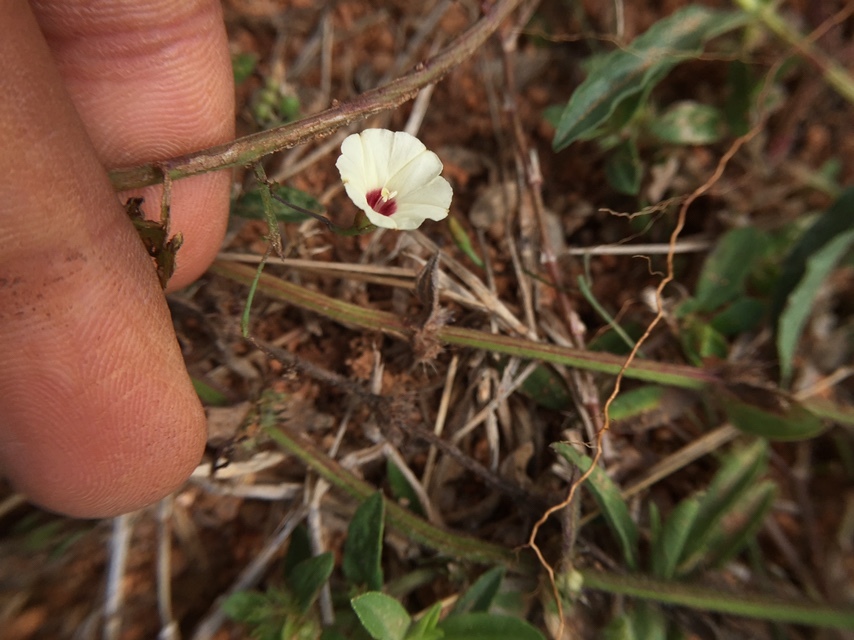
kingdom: Plantae
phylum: Tracheophyta
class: Magnoliopsida
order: Solanales
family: Convolvulaceae
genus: Xenostegia
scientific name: Xenostegia tridentata
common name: African morningvine
